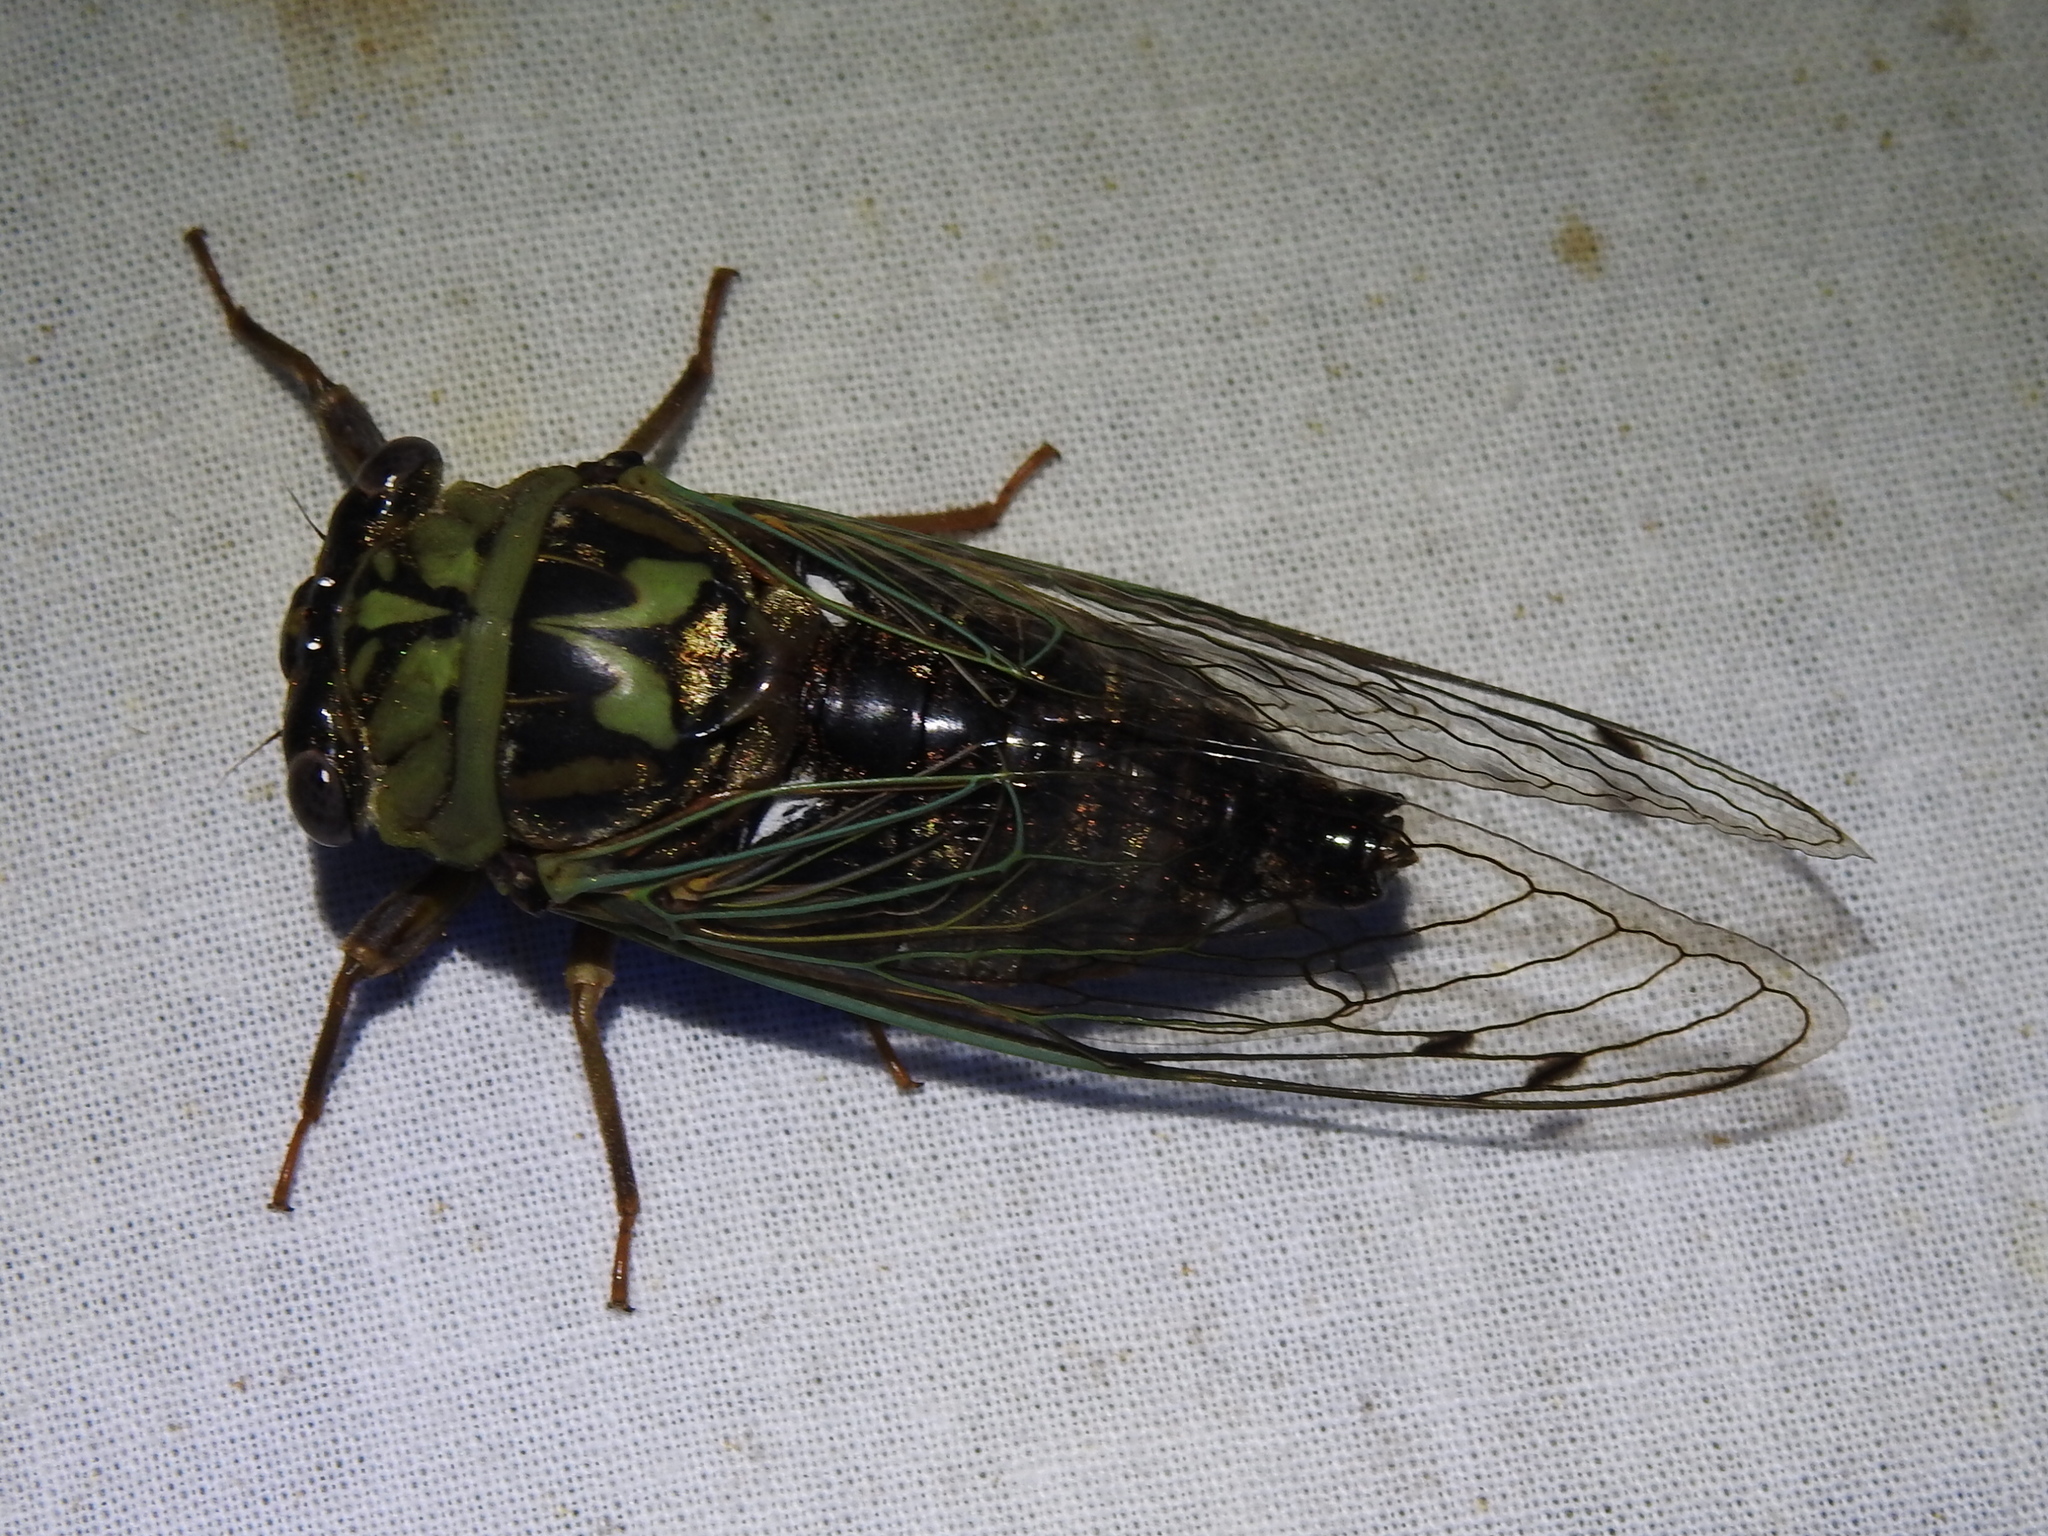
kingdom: Animalia
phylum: Arthropoda
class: Insecta
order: Hemiptera
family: Cicadidae
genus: Megatibicen
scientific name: Megatibicen resh
